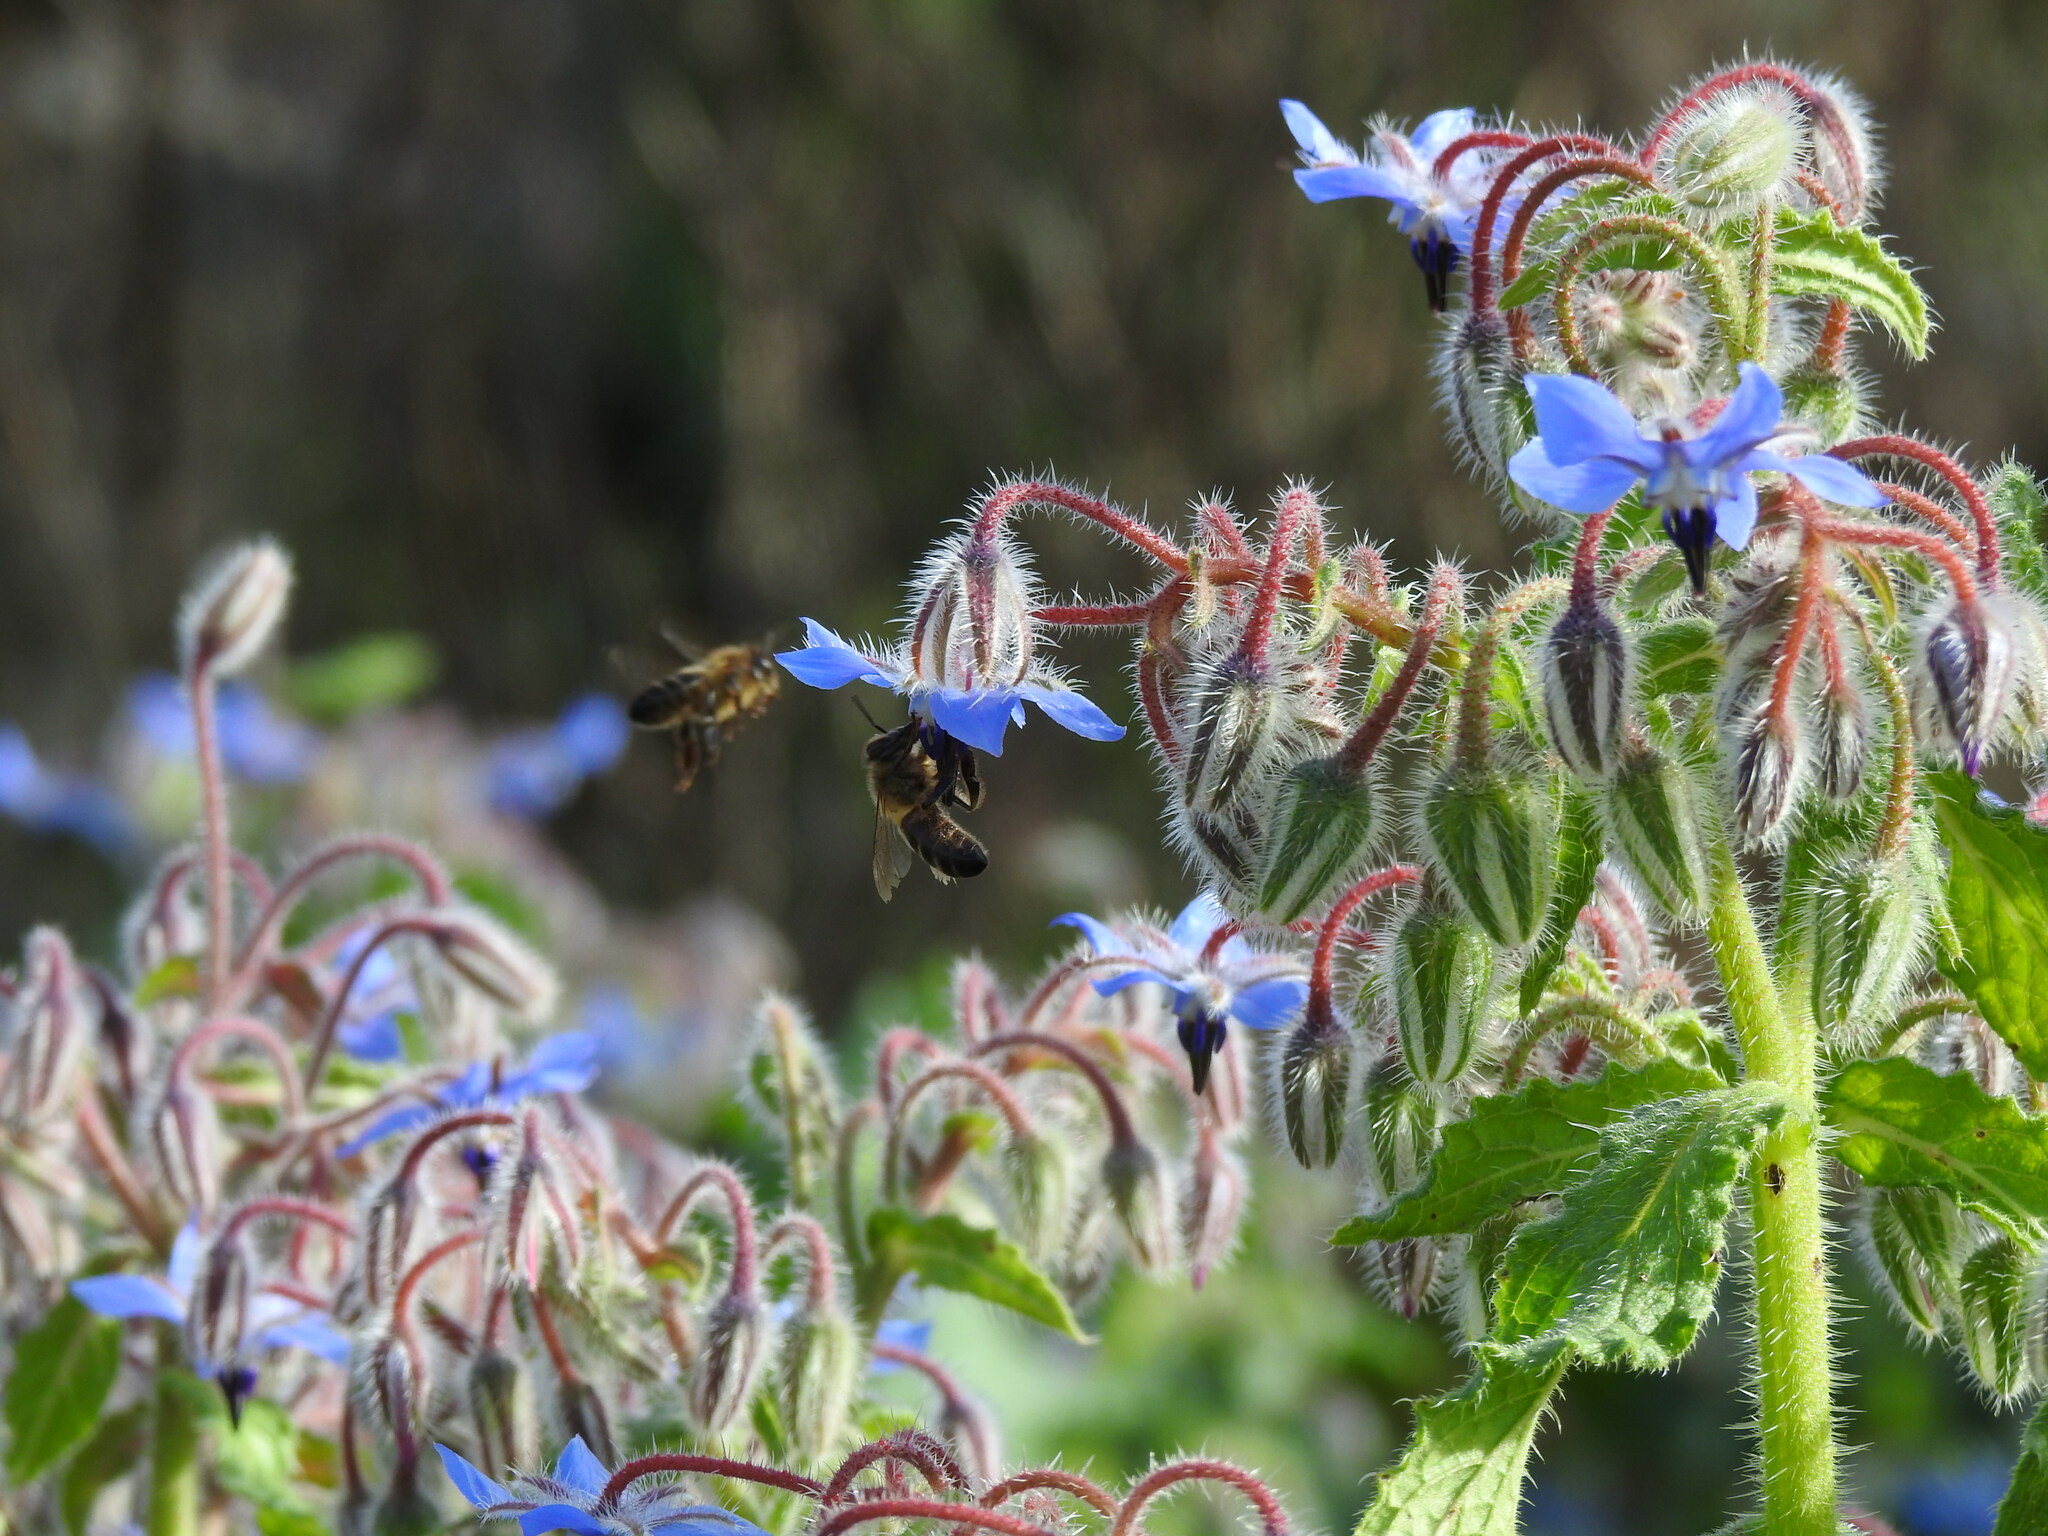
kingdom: Animalia
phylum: Arthropoda
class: Insecta
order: Hymenoptera
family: Apidae
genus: Apis
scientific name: Apis mellifera
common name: Honey bee
